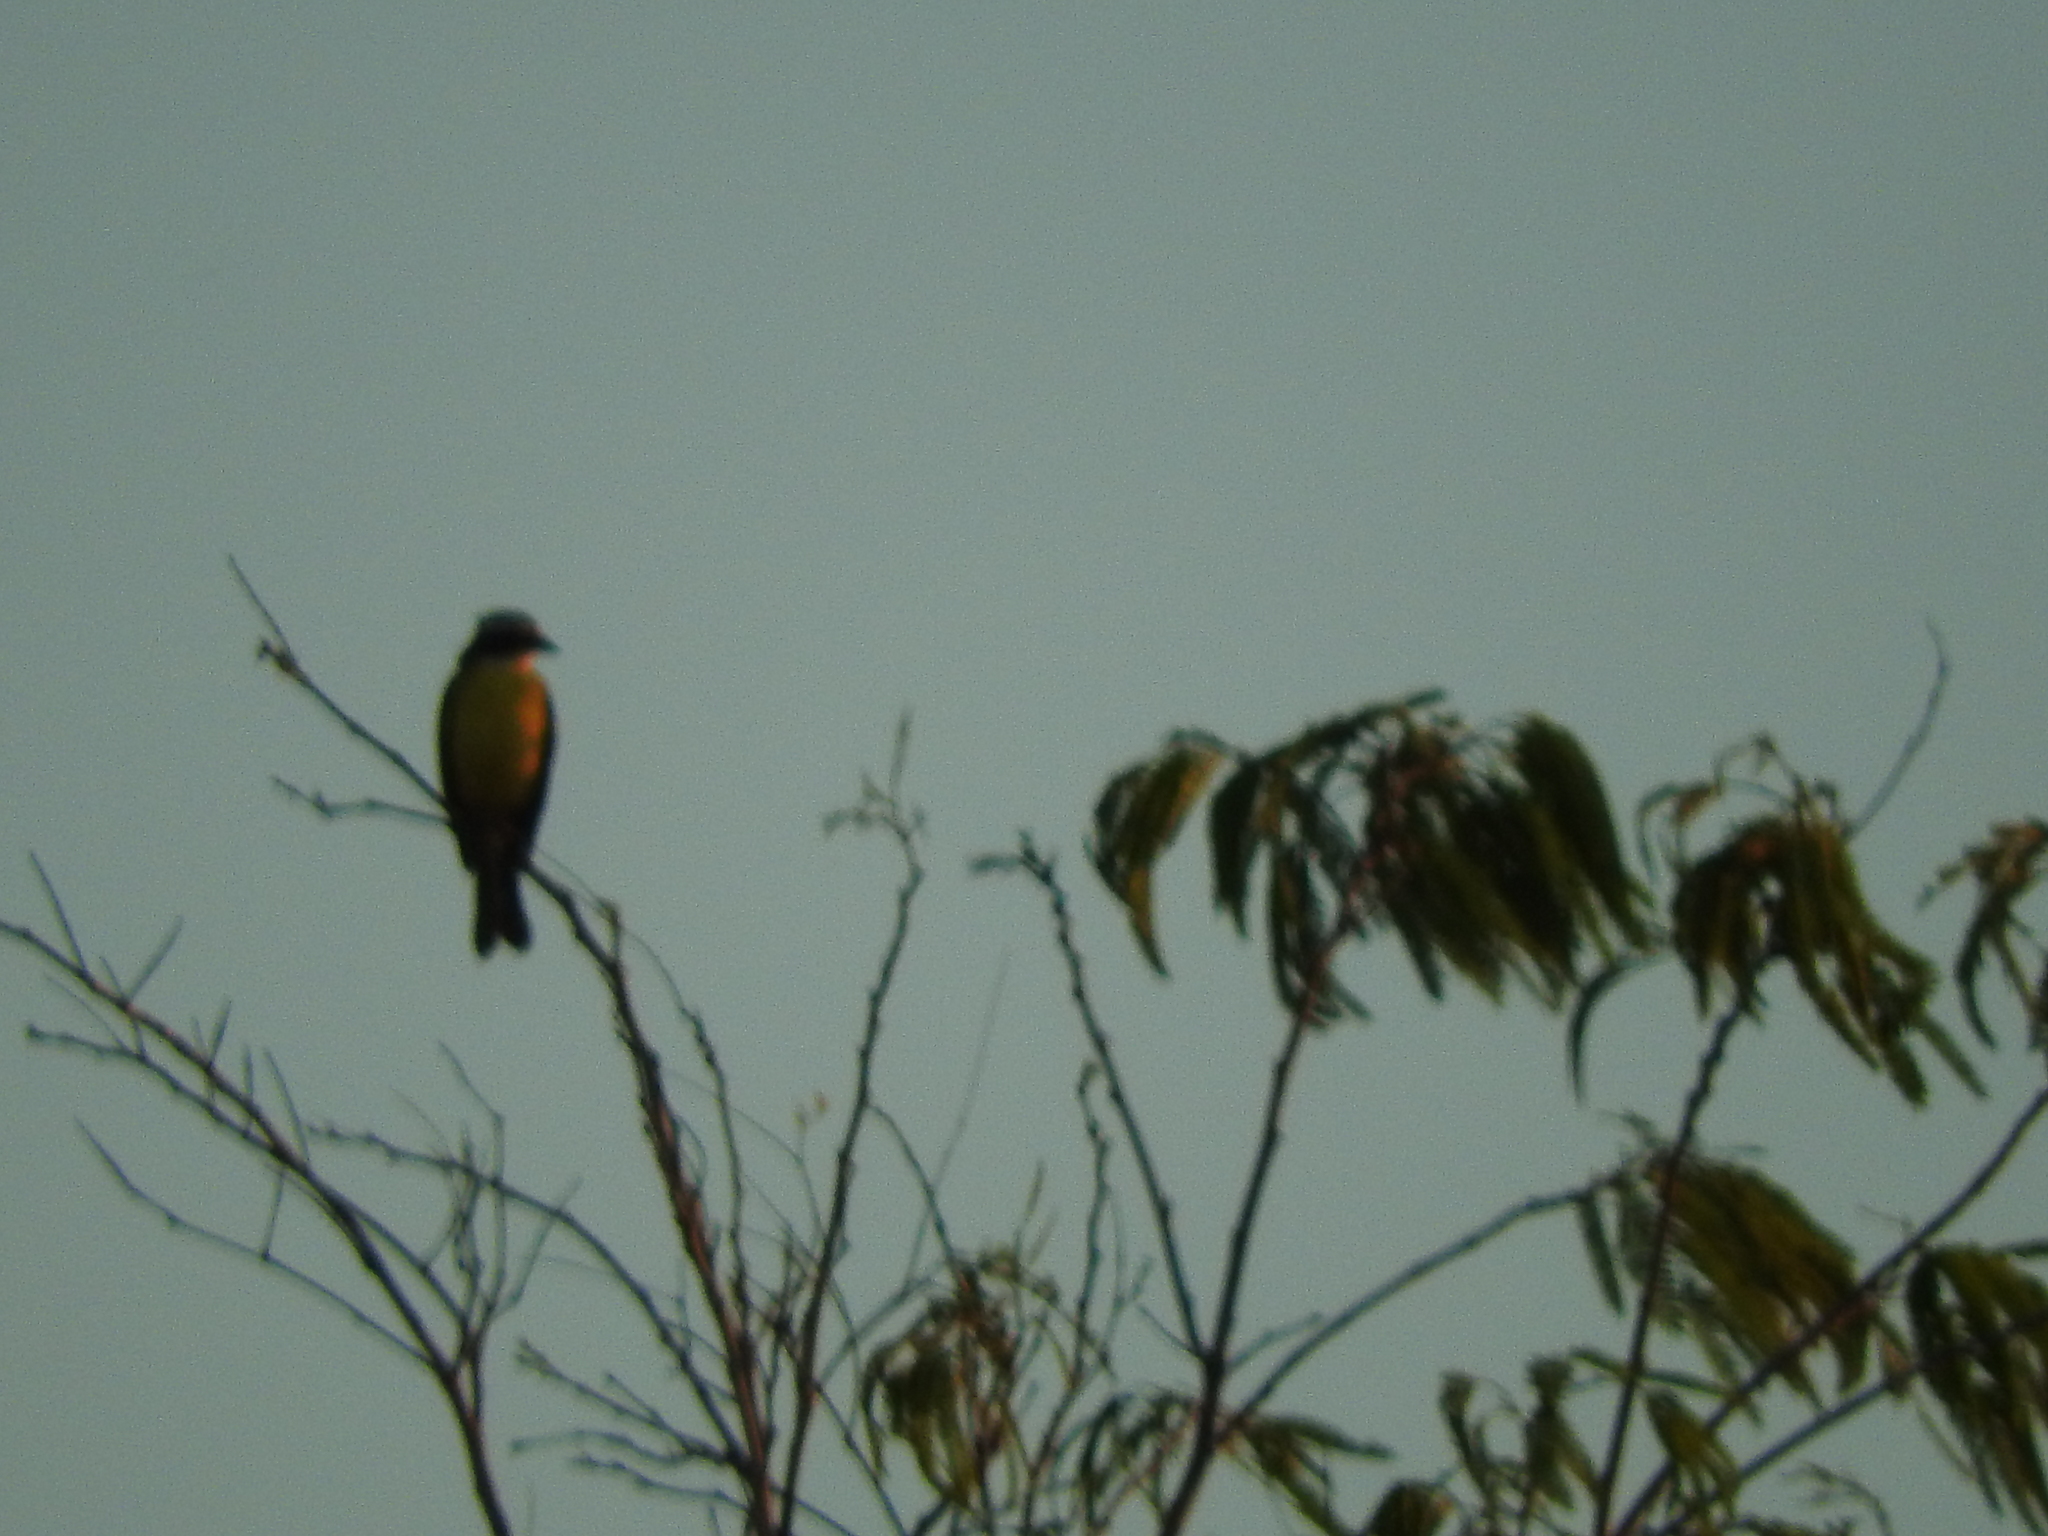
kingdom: Animalia
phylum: Chordata
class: Aves
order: Passeriformes
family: Tyrannidae
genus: Myiozetetes
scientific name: Myiozetetes similis
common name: Social flycatcher
